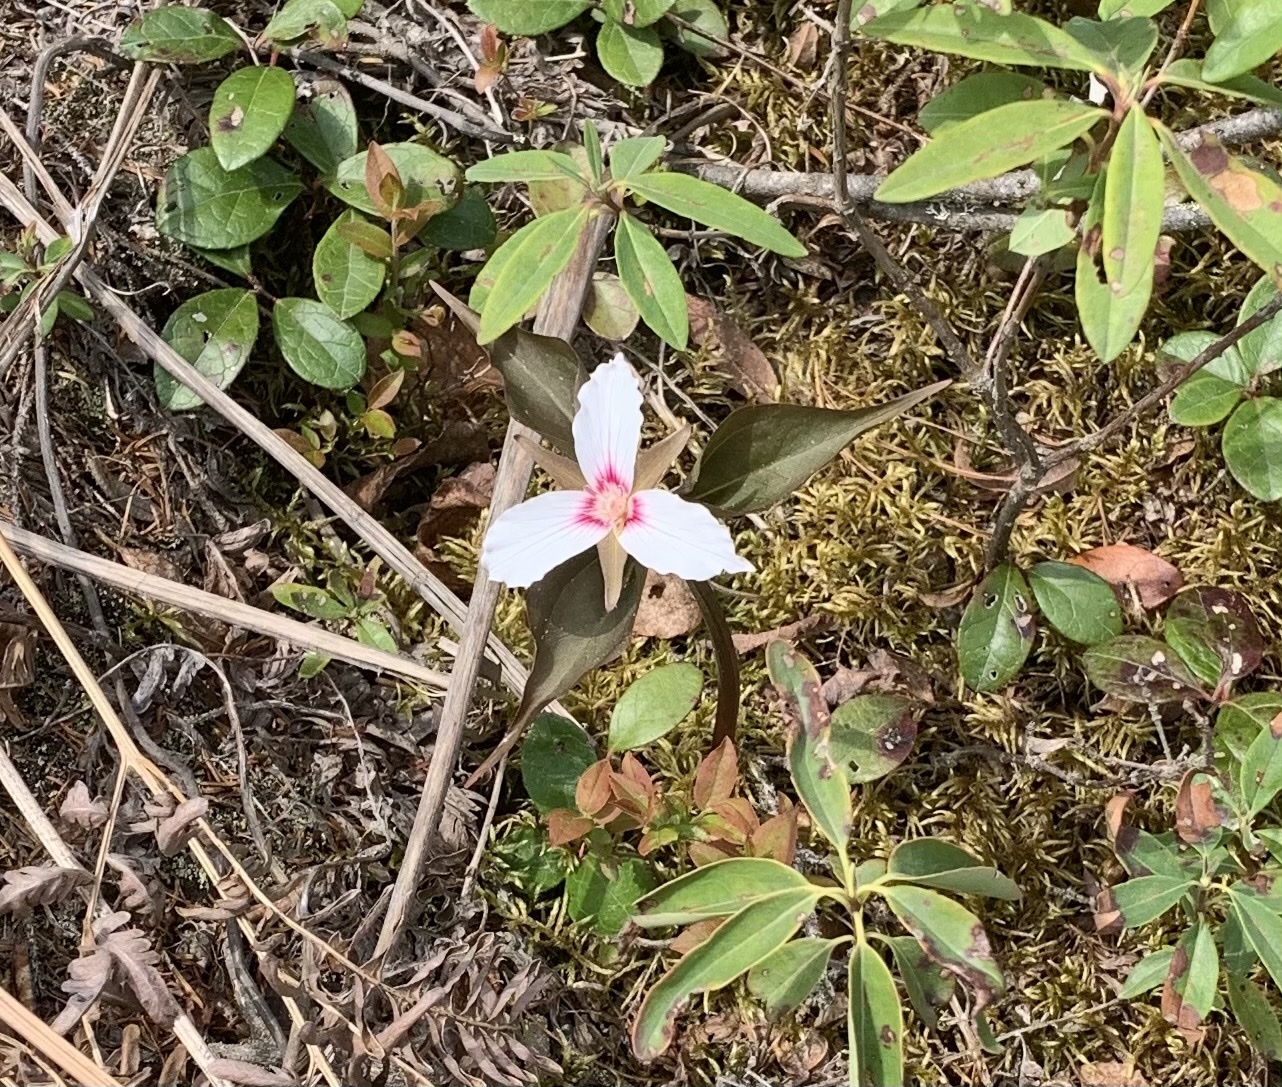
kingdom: Plantae
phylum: Tracheophyta
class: Liliopsida
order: Liliales
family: Melanthiaceae
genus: Trillium
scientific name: Trillium undulatum
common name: Paint trillium
